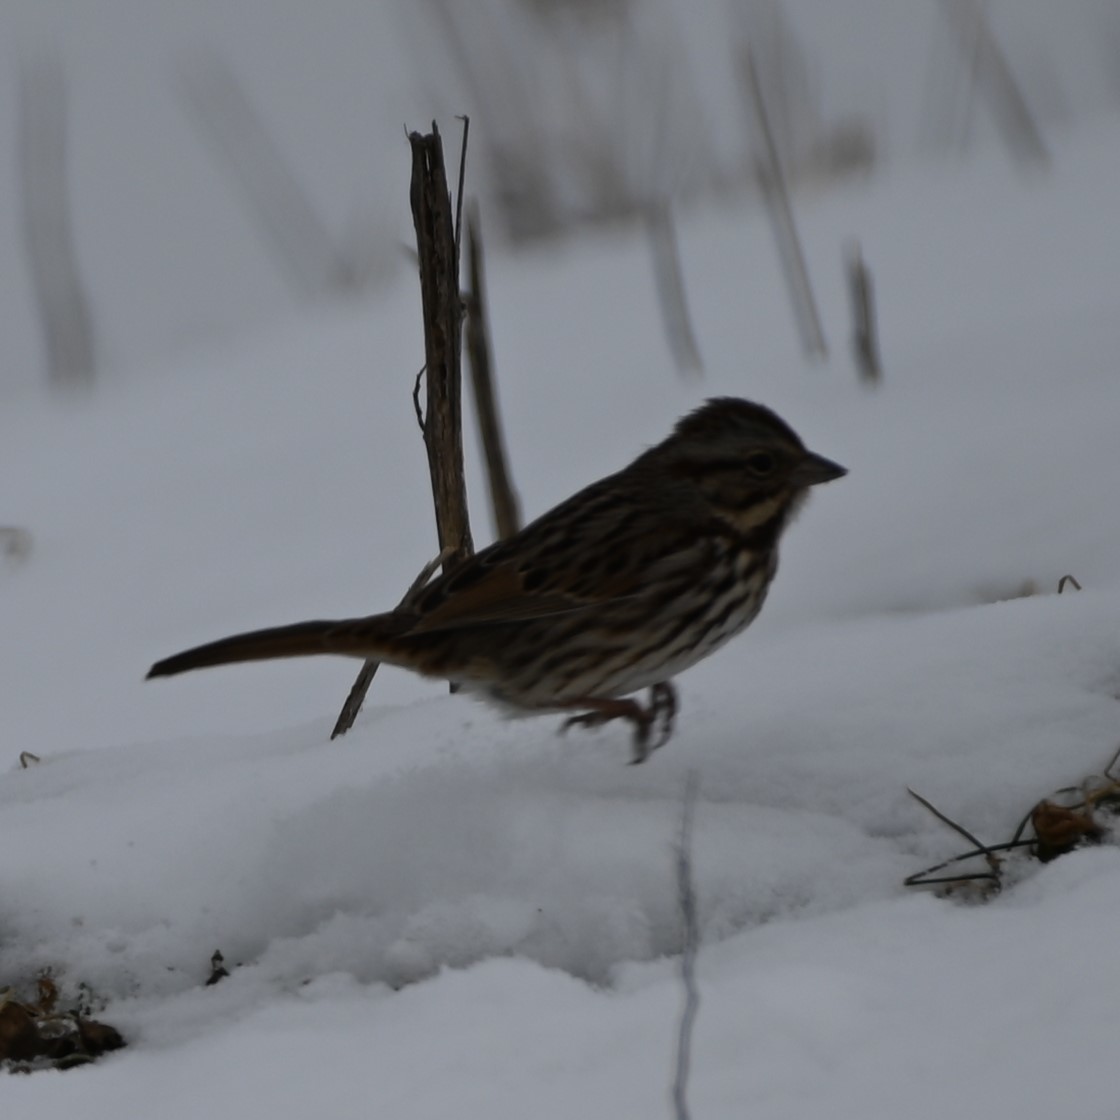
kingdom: Animalia
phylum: Chordata
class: Aves
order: Passeriformes
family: Passerellidae
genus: Melospiza
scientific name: Melospiza melodia
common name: Song sparrow
